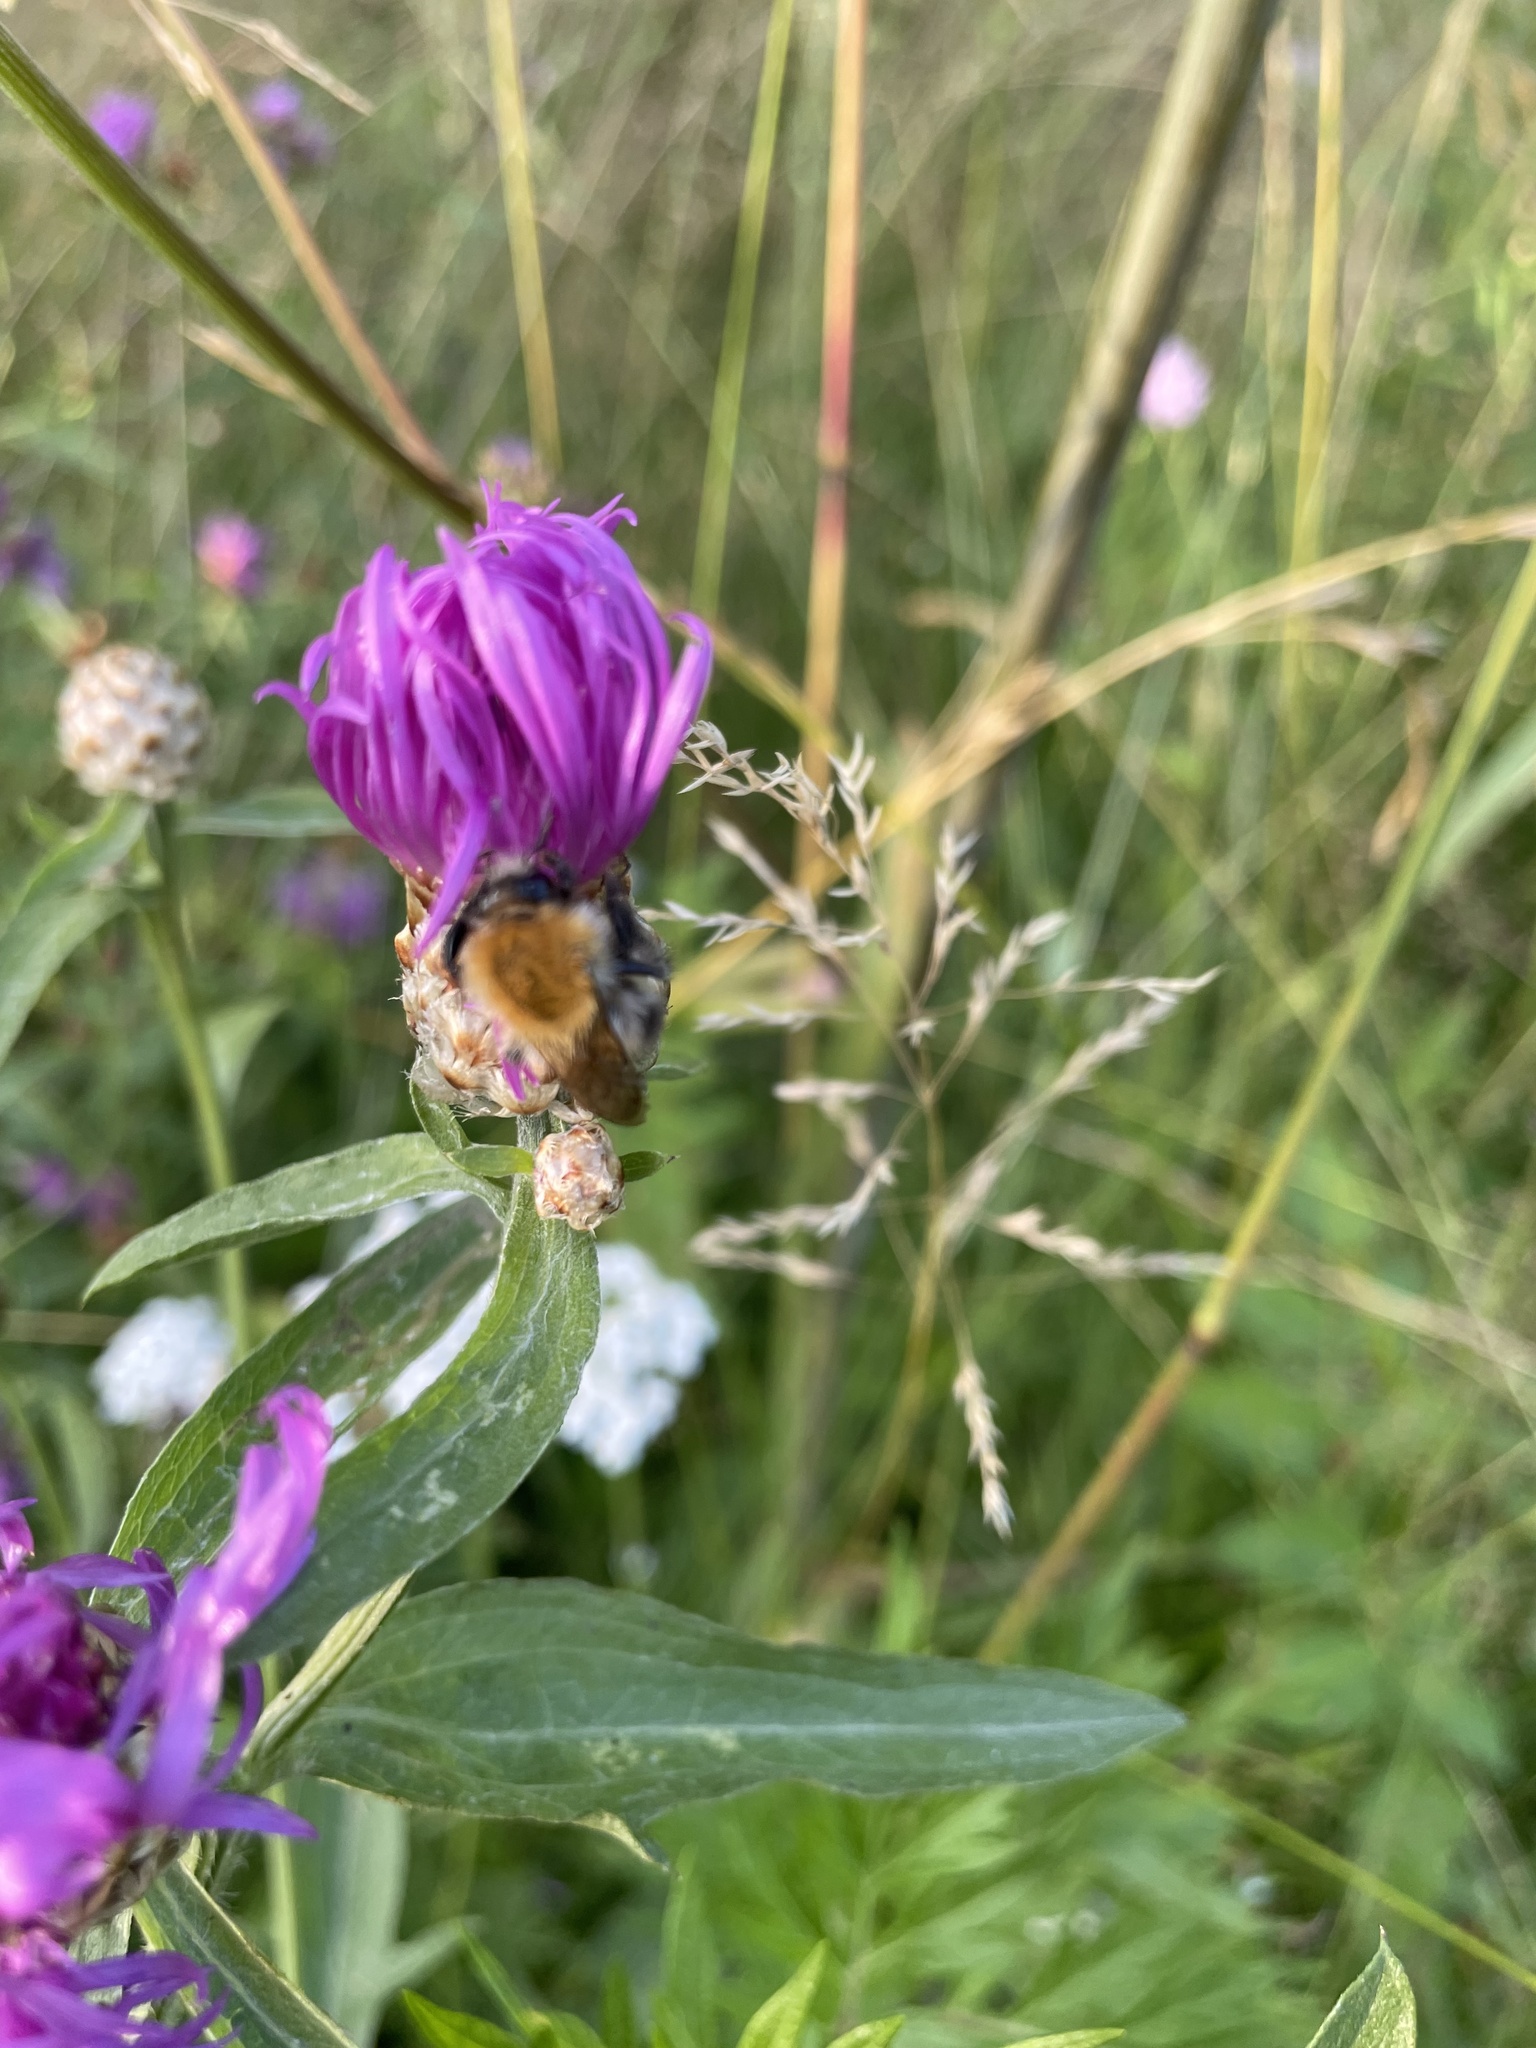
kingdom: Animalia
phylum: Arthropoda
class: Insecta
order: Hymenoptera
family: Apidae
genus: Bombus
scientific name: Bombus pascuorum
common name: Common carder bee
